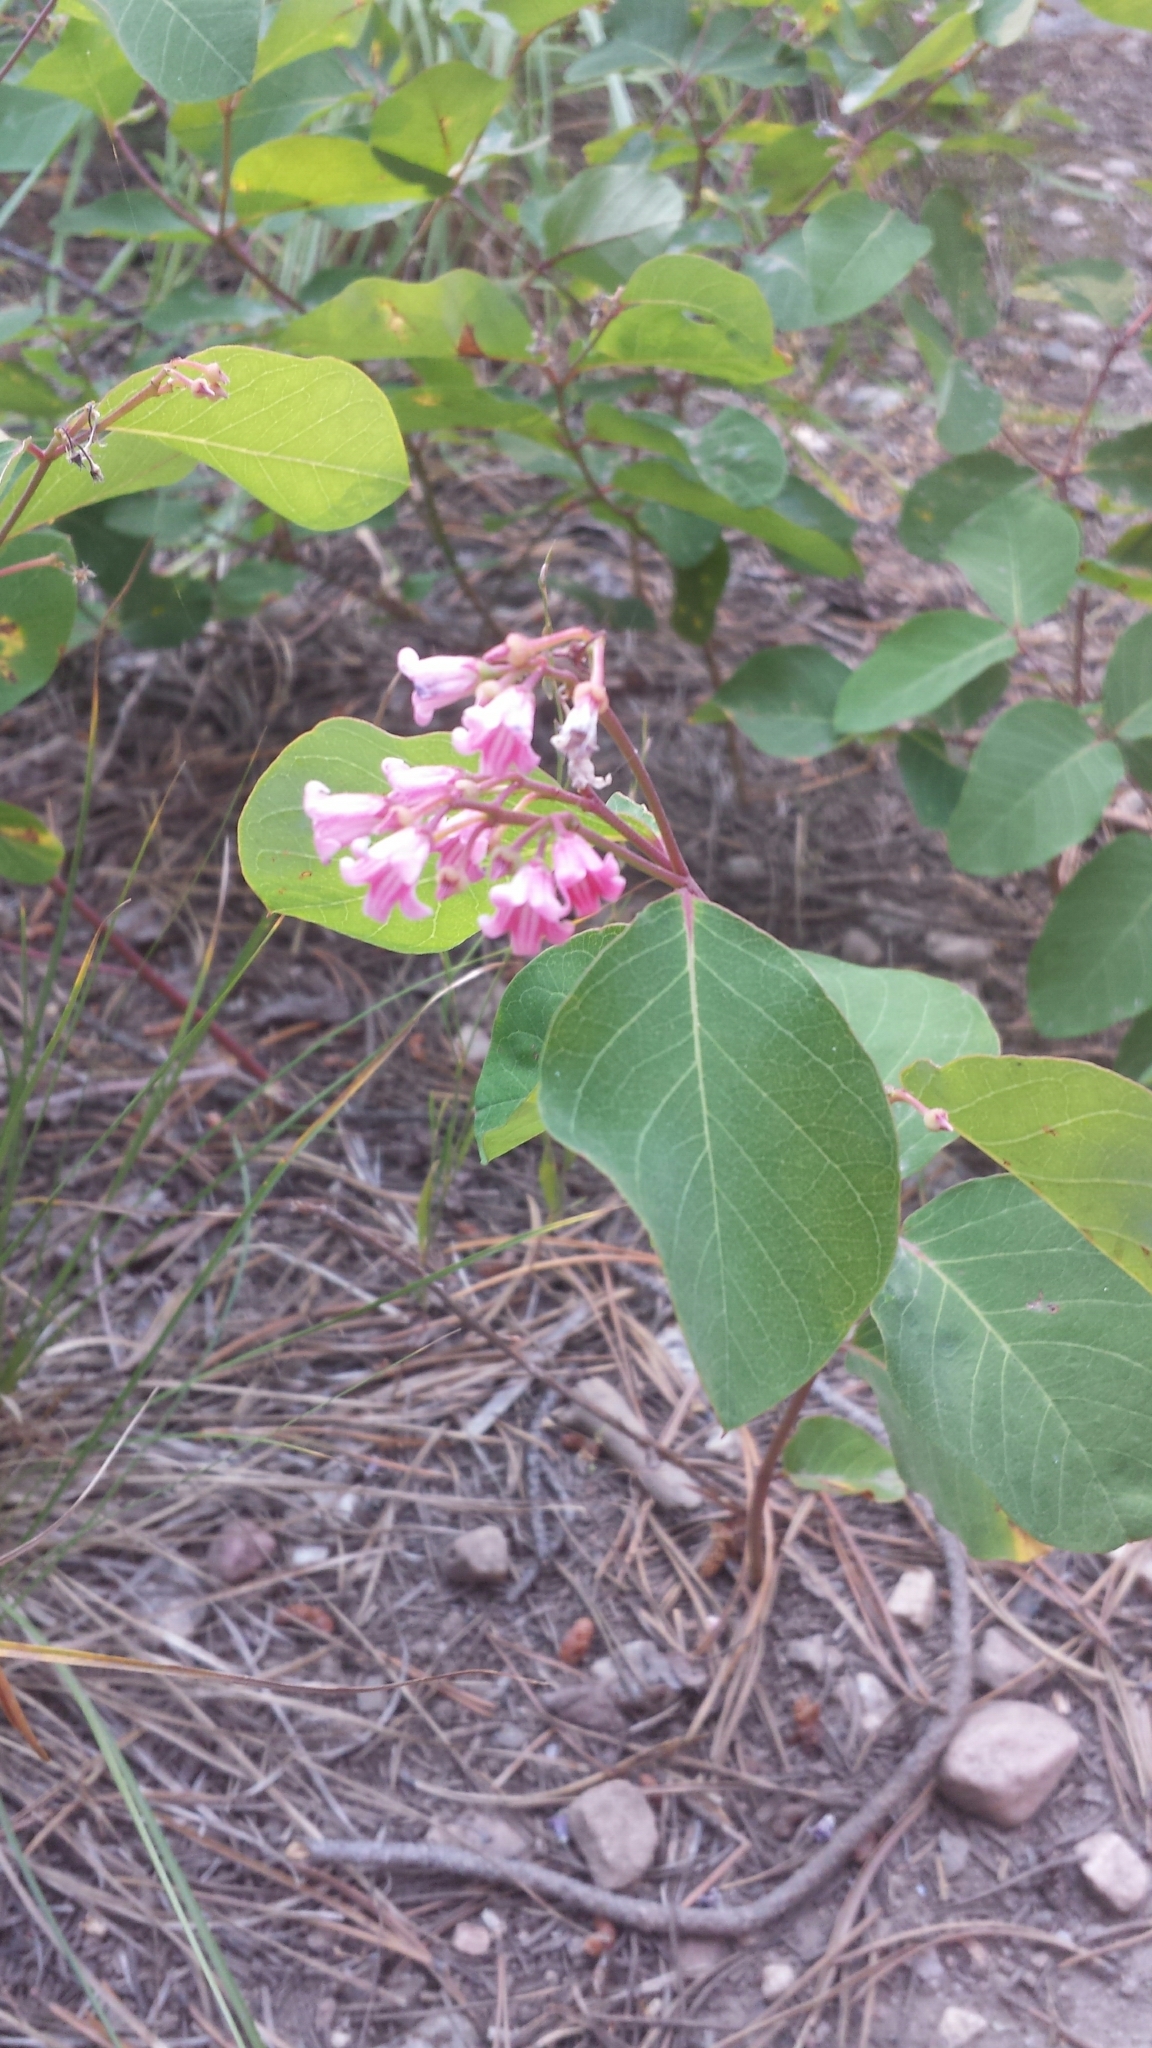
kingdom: Plantae
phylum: Tracheophyta
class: Magnoliopsida
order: Gentianales
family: Apocynaceae
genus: Apocynum
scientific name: Apocynum androsaemifolium
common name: Spreading dogbane
